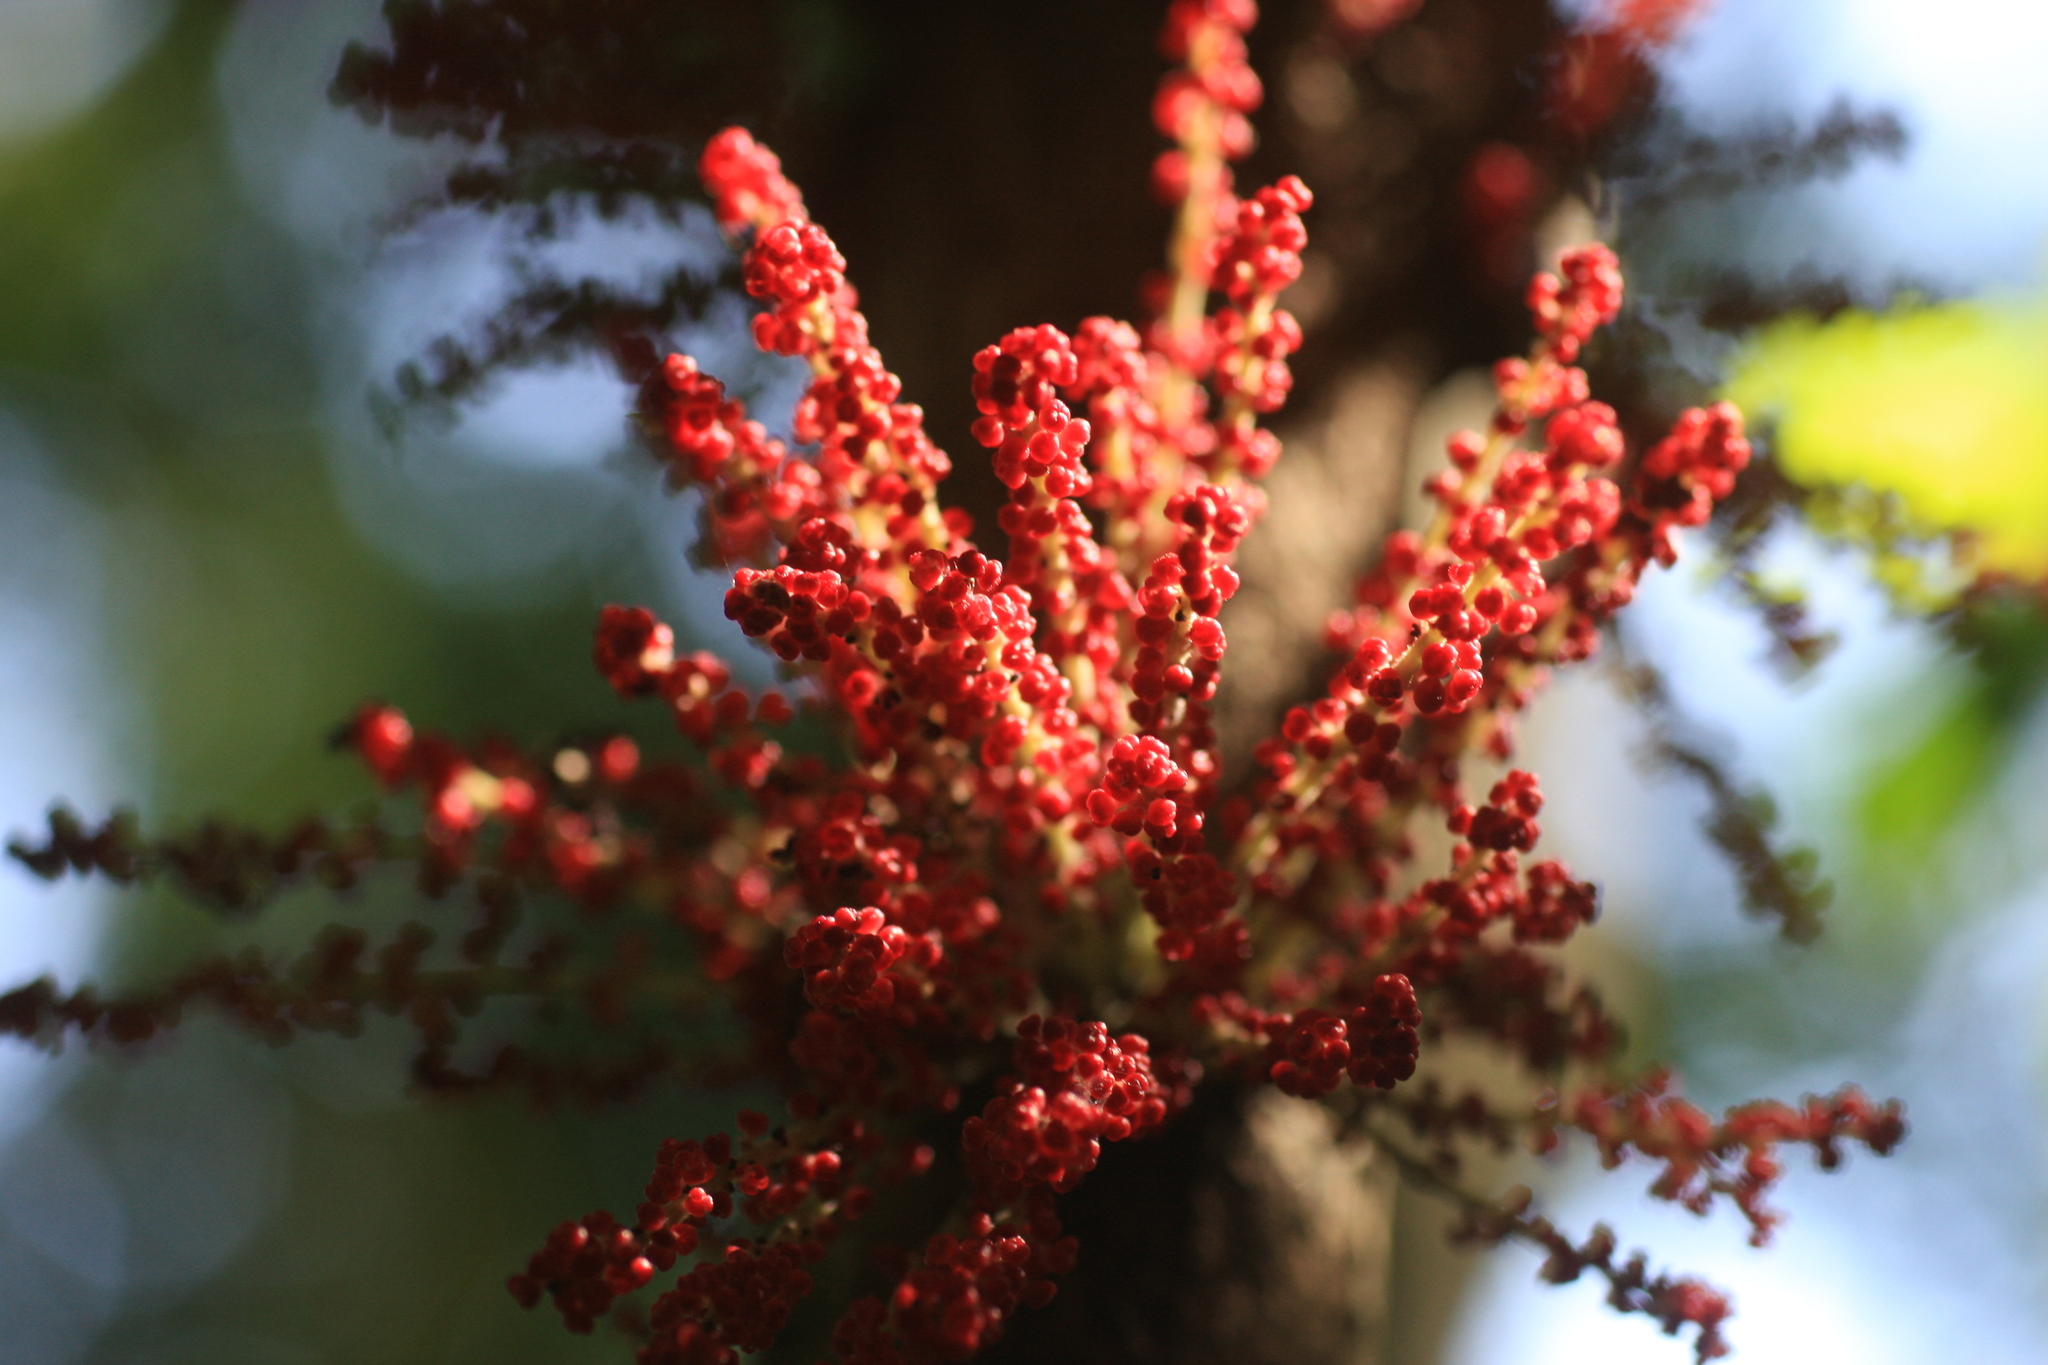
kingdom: Plantae
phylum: Tracheophyta
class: Magnoliopsida
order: Malpighiales
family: Phyllanthaceae
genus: Baccaurea
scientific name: Baccaurea courtallensis
